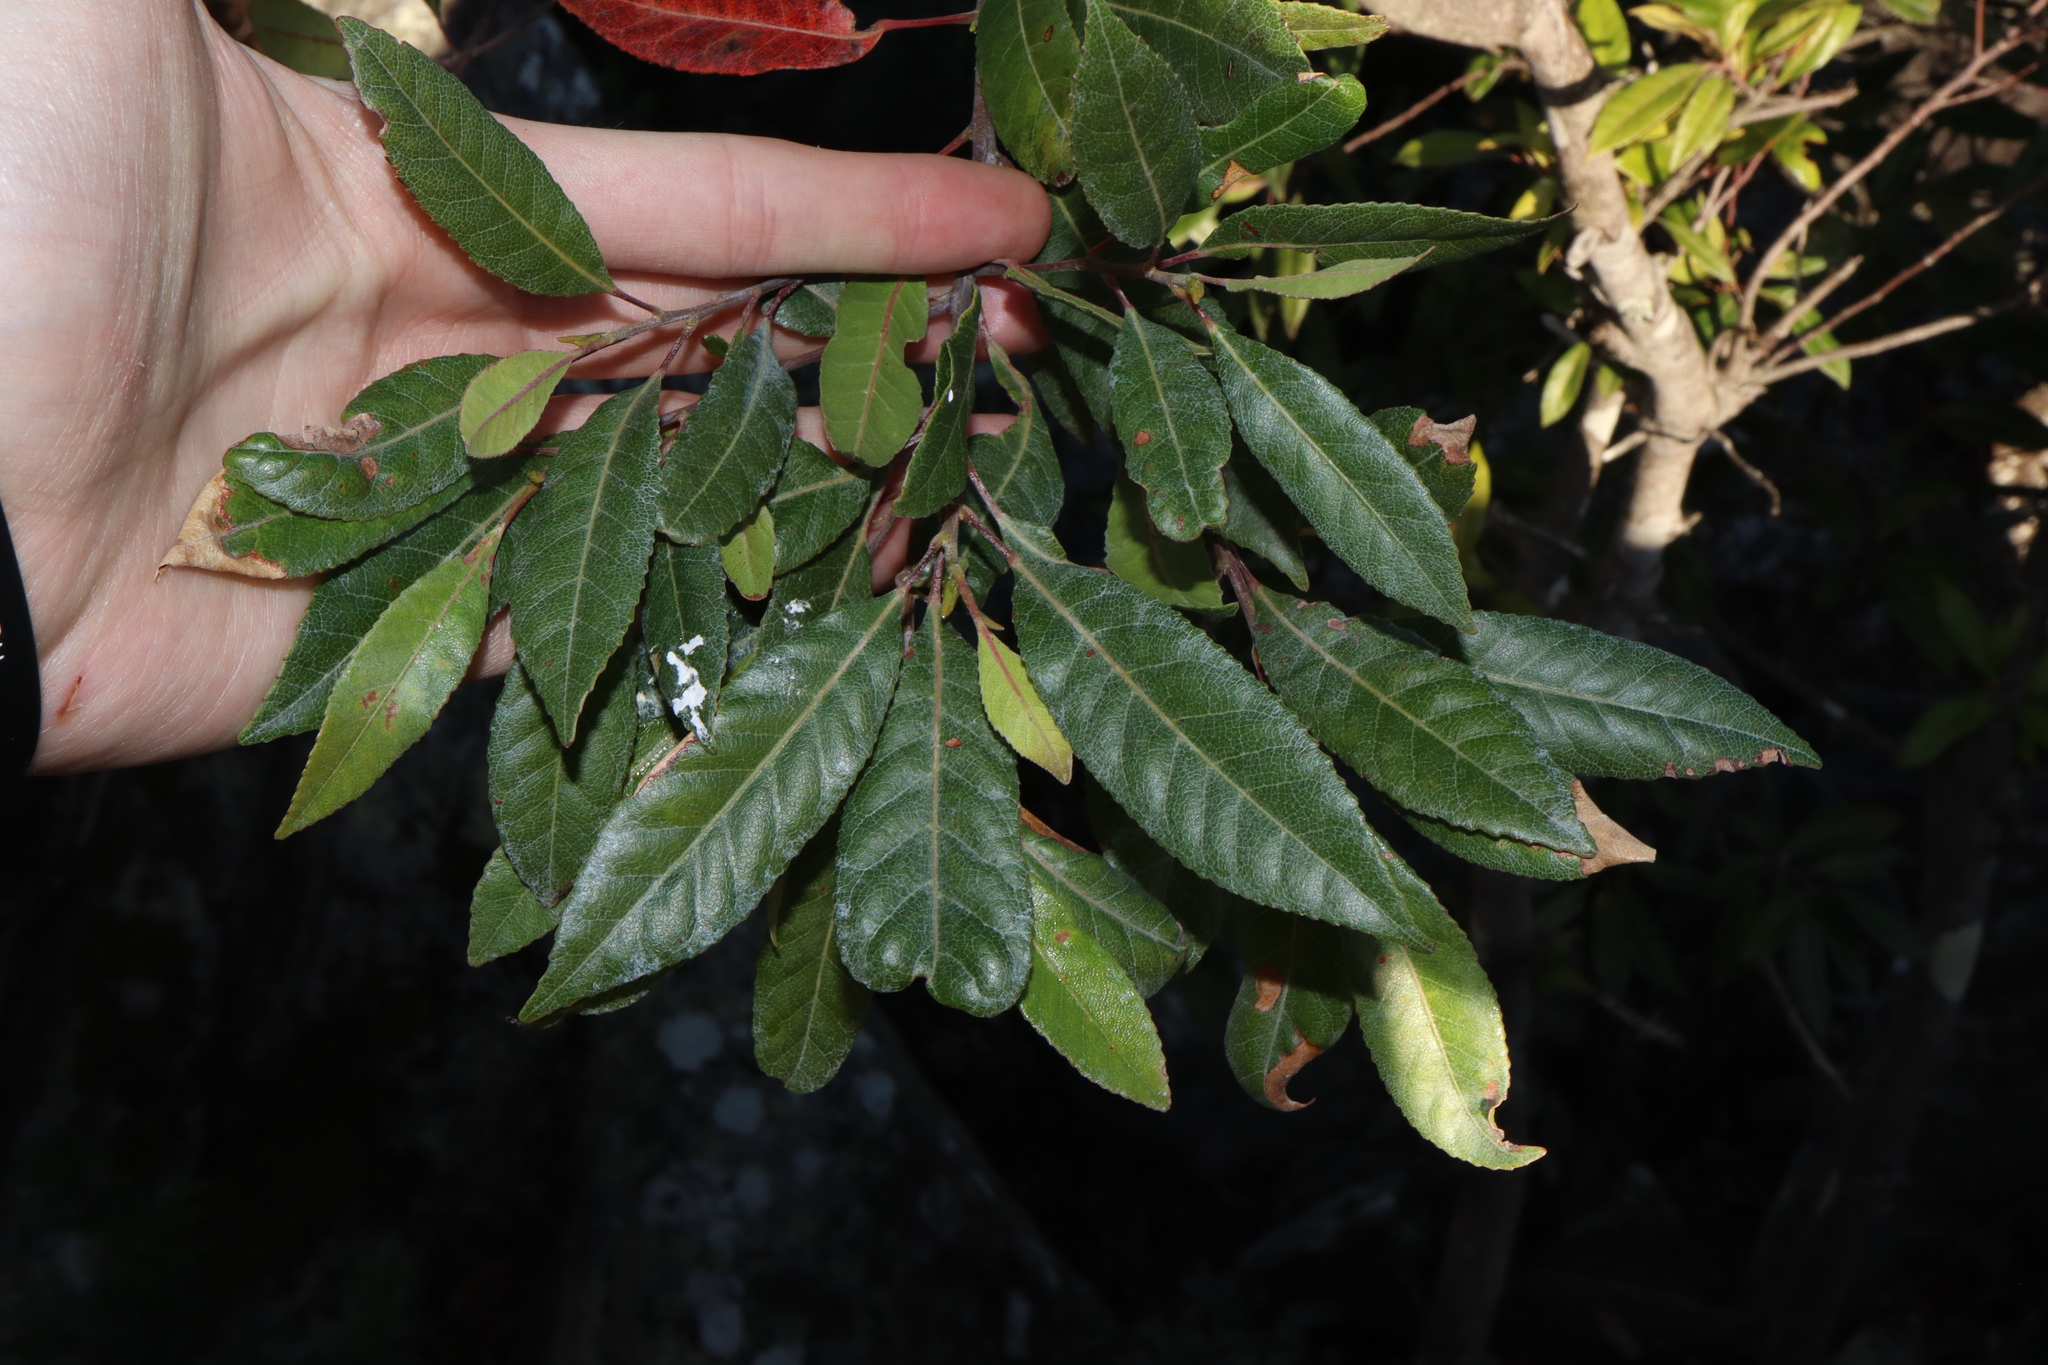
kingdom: Plantae
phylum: Tracheophyta
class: Magnoliopsida
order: Oxalidales
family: Elaeocarpaceae
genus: Elaeocarpus
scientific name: Elaeocarpus reticulatus
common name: Ash quandong
